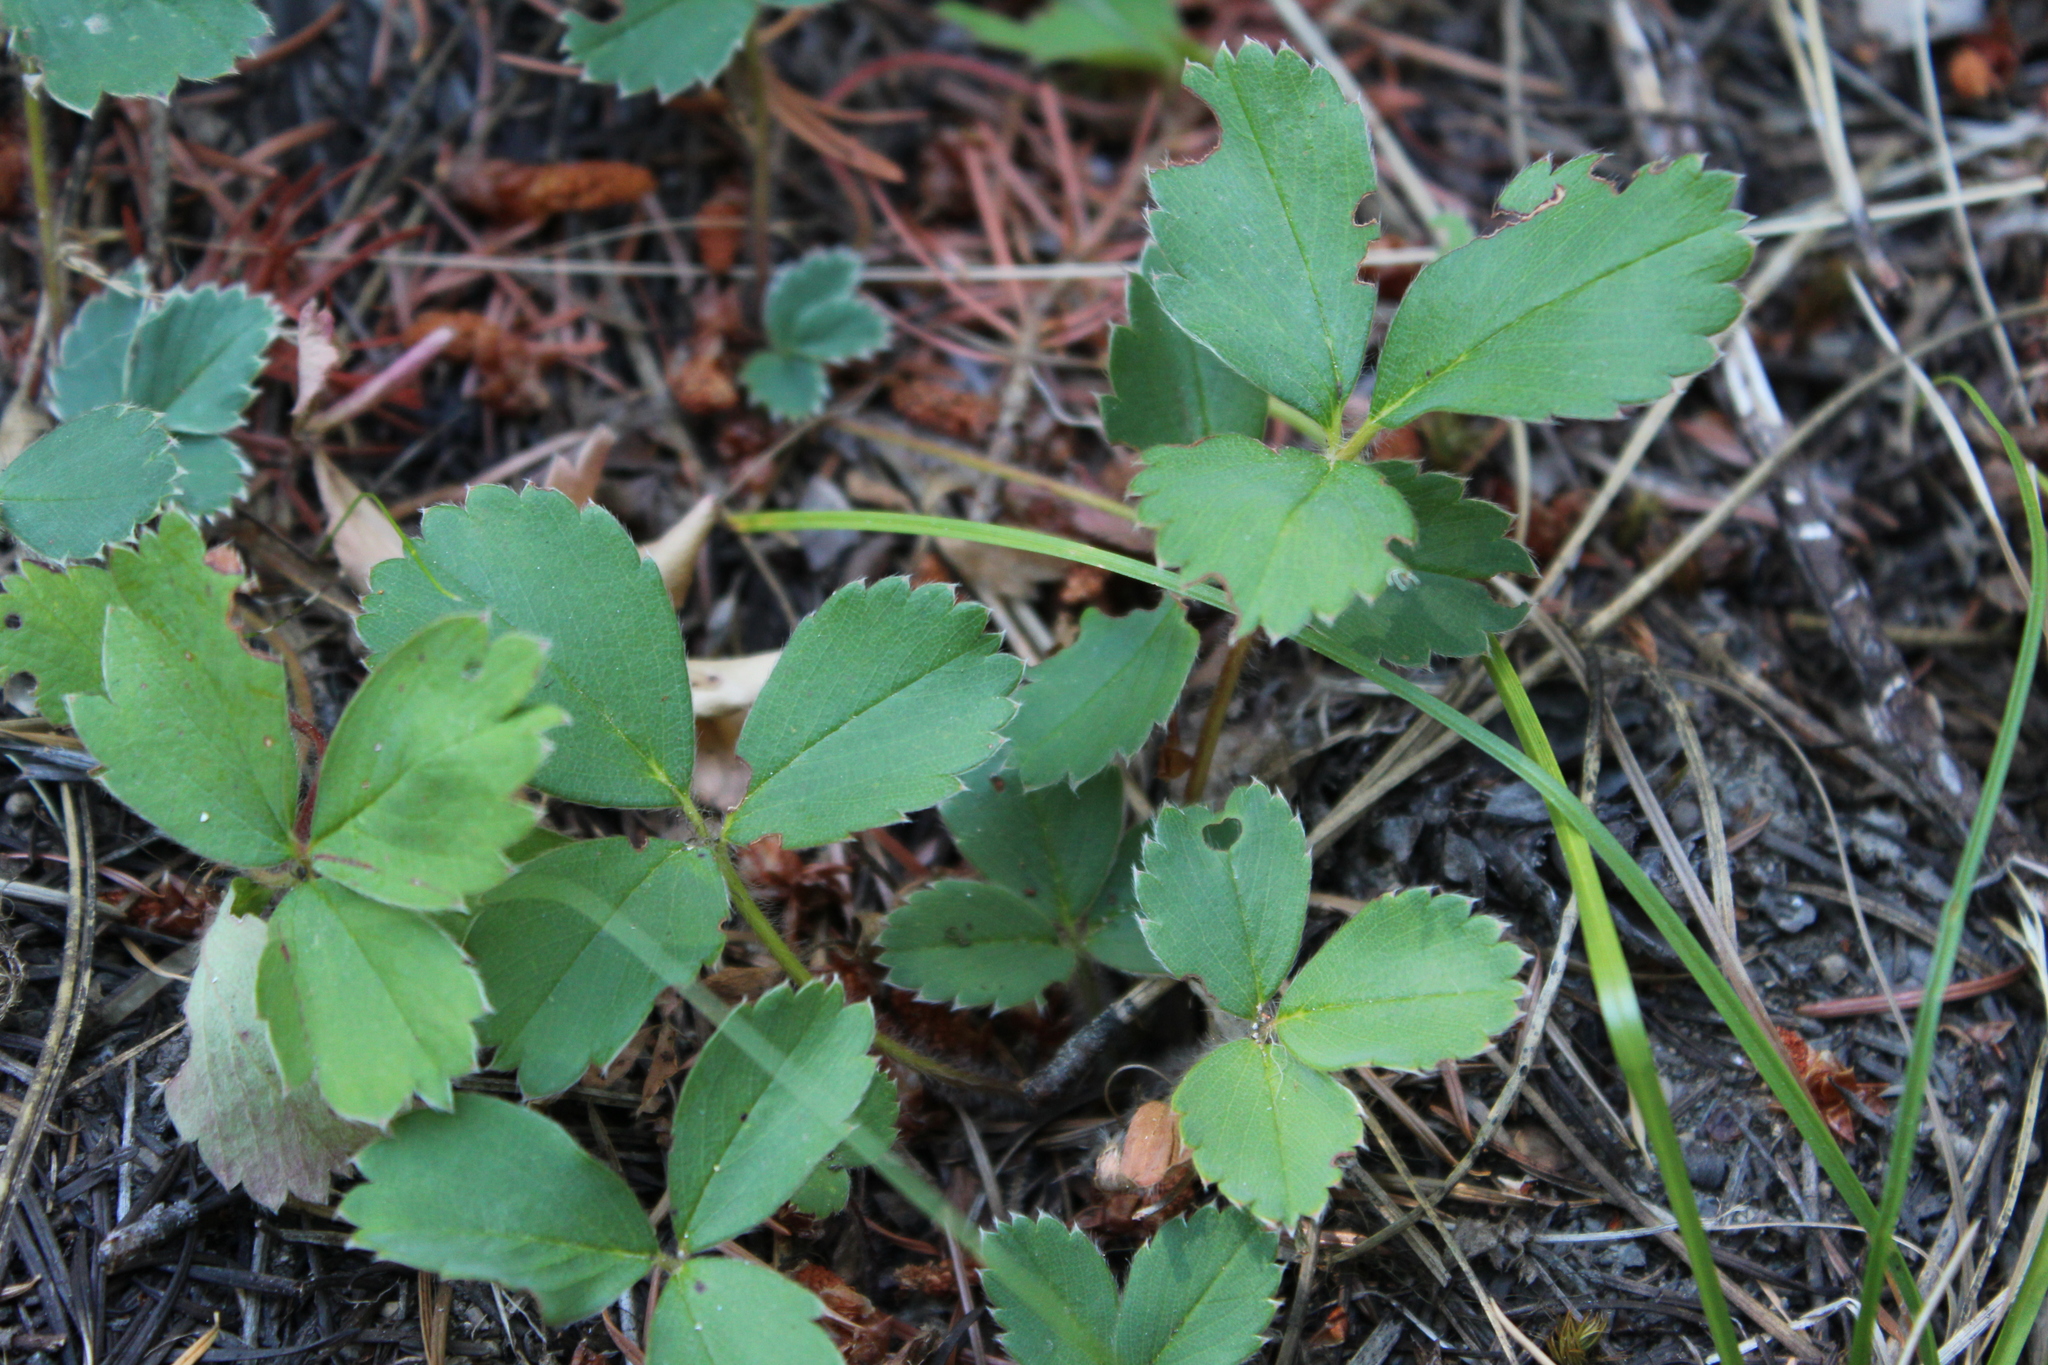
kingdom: Plantae
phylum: Tracheophyta
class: Magnoliopsida
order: Rosales
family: Rosaceae
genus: Fragaria
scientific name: Fragaria virginiana
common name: Thickleaved wild strawberry
